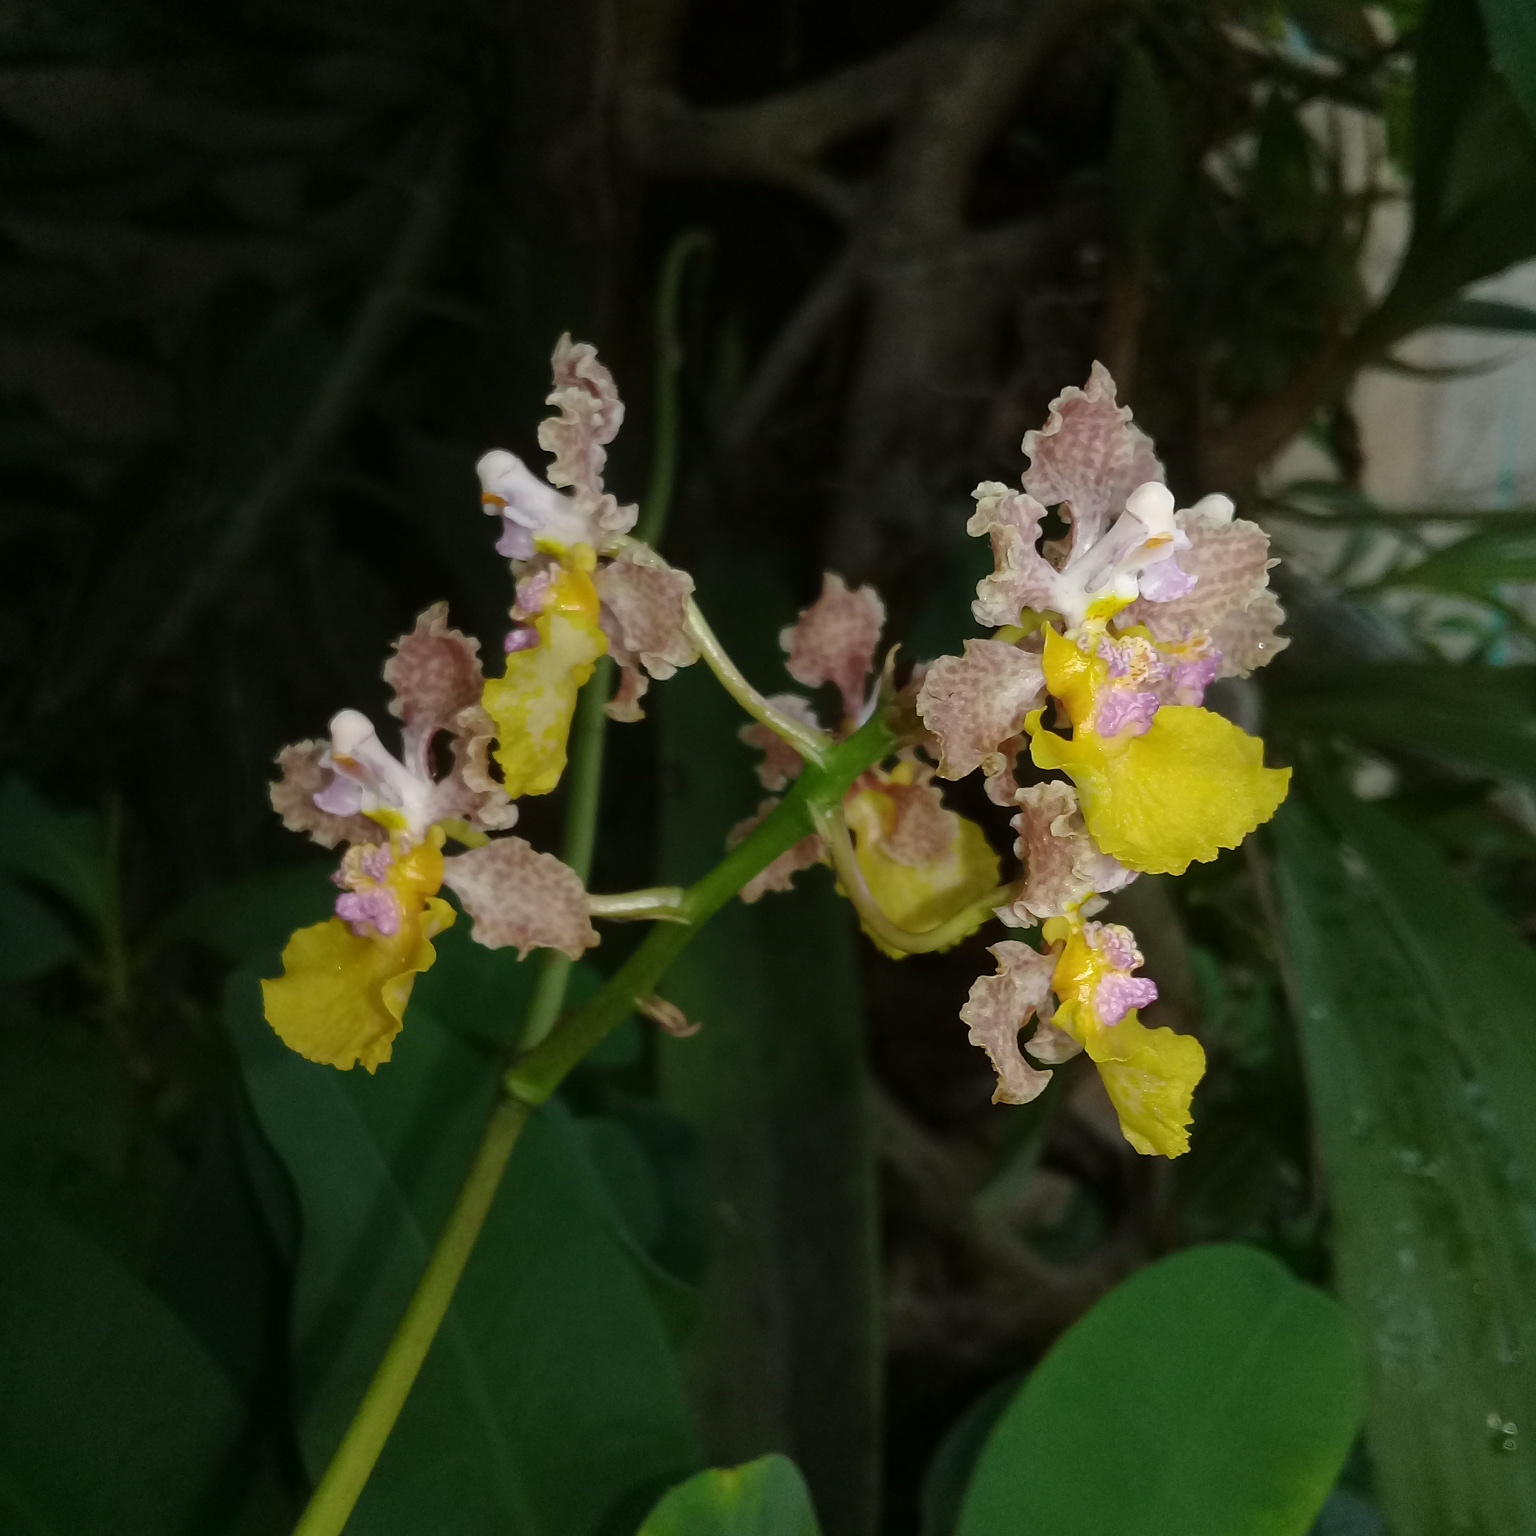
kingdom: Plantae
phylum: Tracheophyta
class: Liliopsida
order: Asparagales
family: Orchidaceae
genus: Trichocentrum
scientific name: Trichocentrum andreanum
